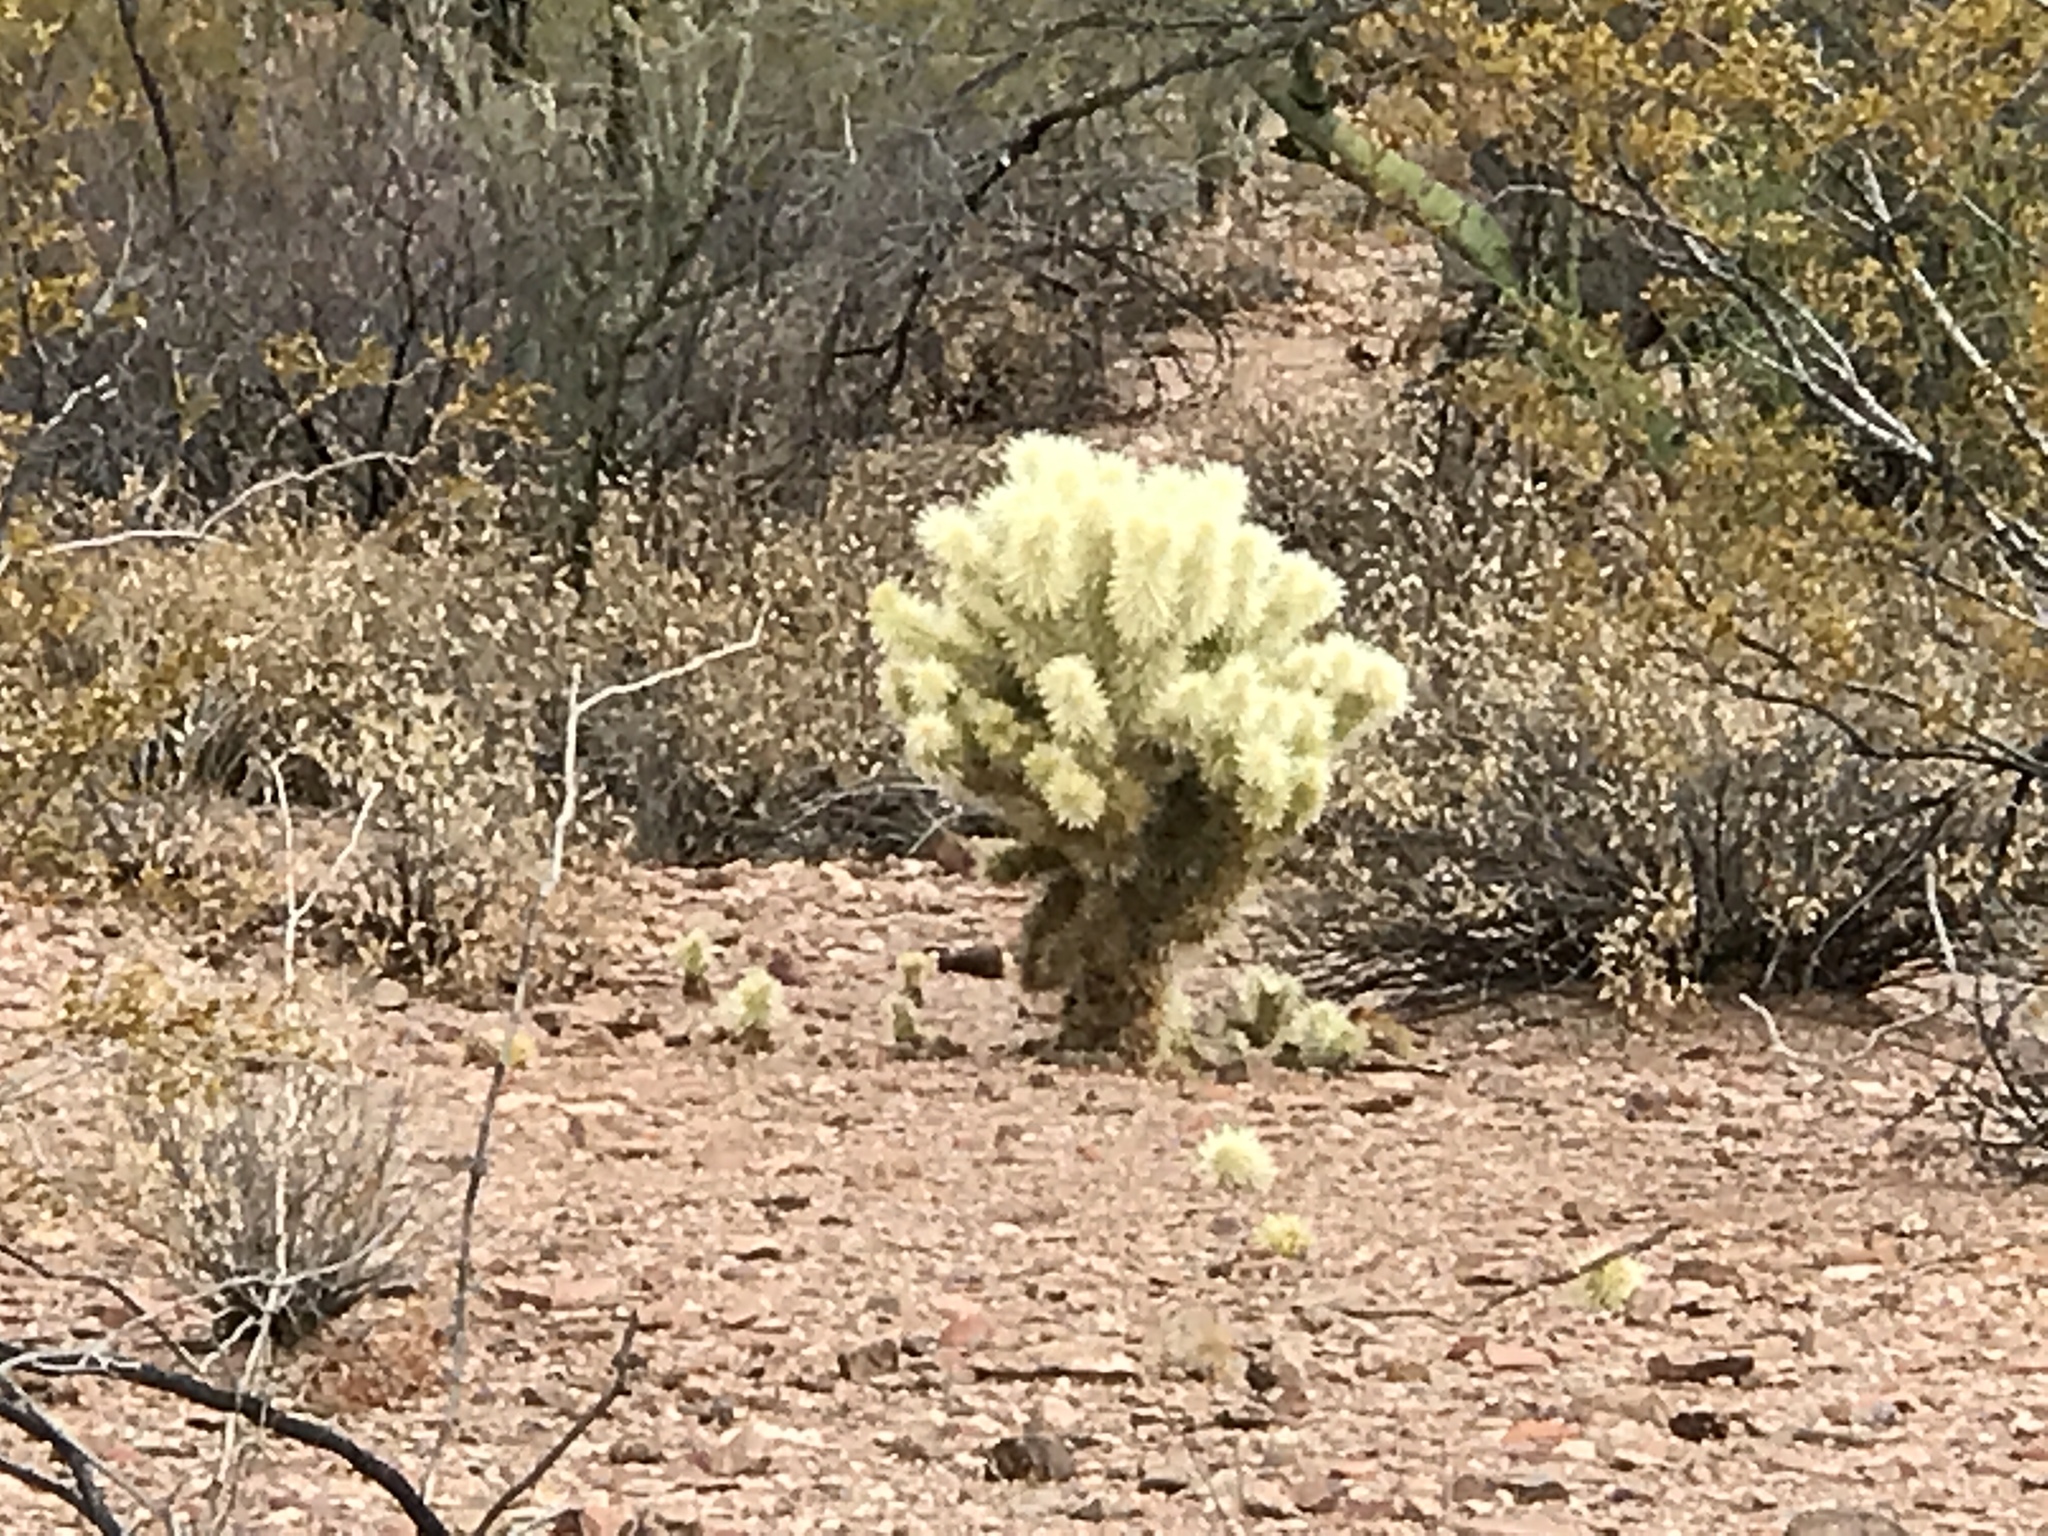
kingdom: Plantae
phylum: Tracheophyta
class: Magnoliopsida
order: Caryophyllales
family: Cactaceae
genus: Cylindropuntia
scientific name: Cylindropuntia fosbergii
